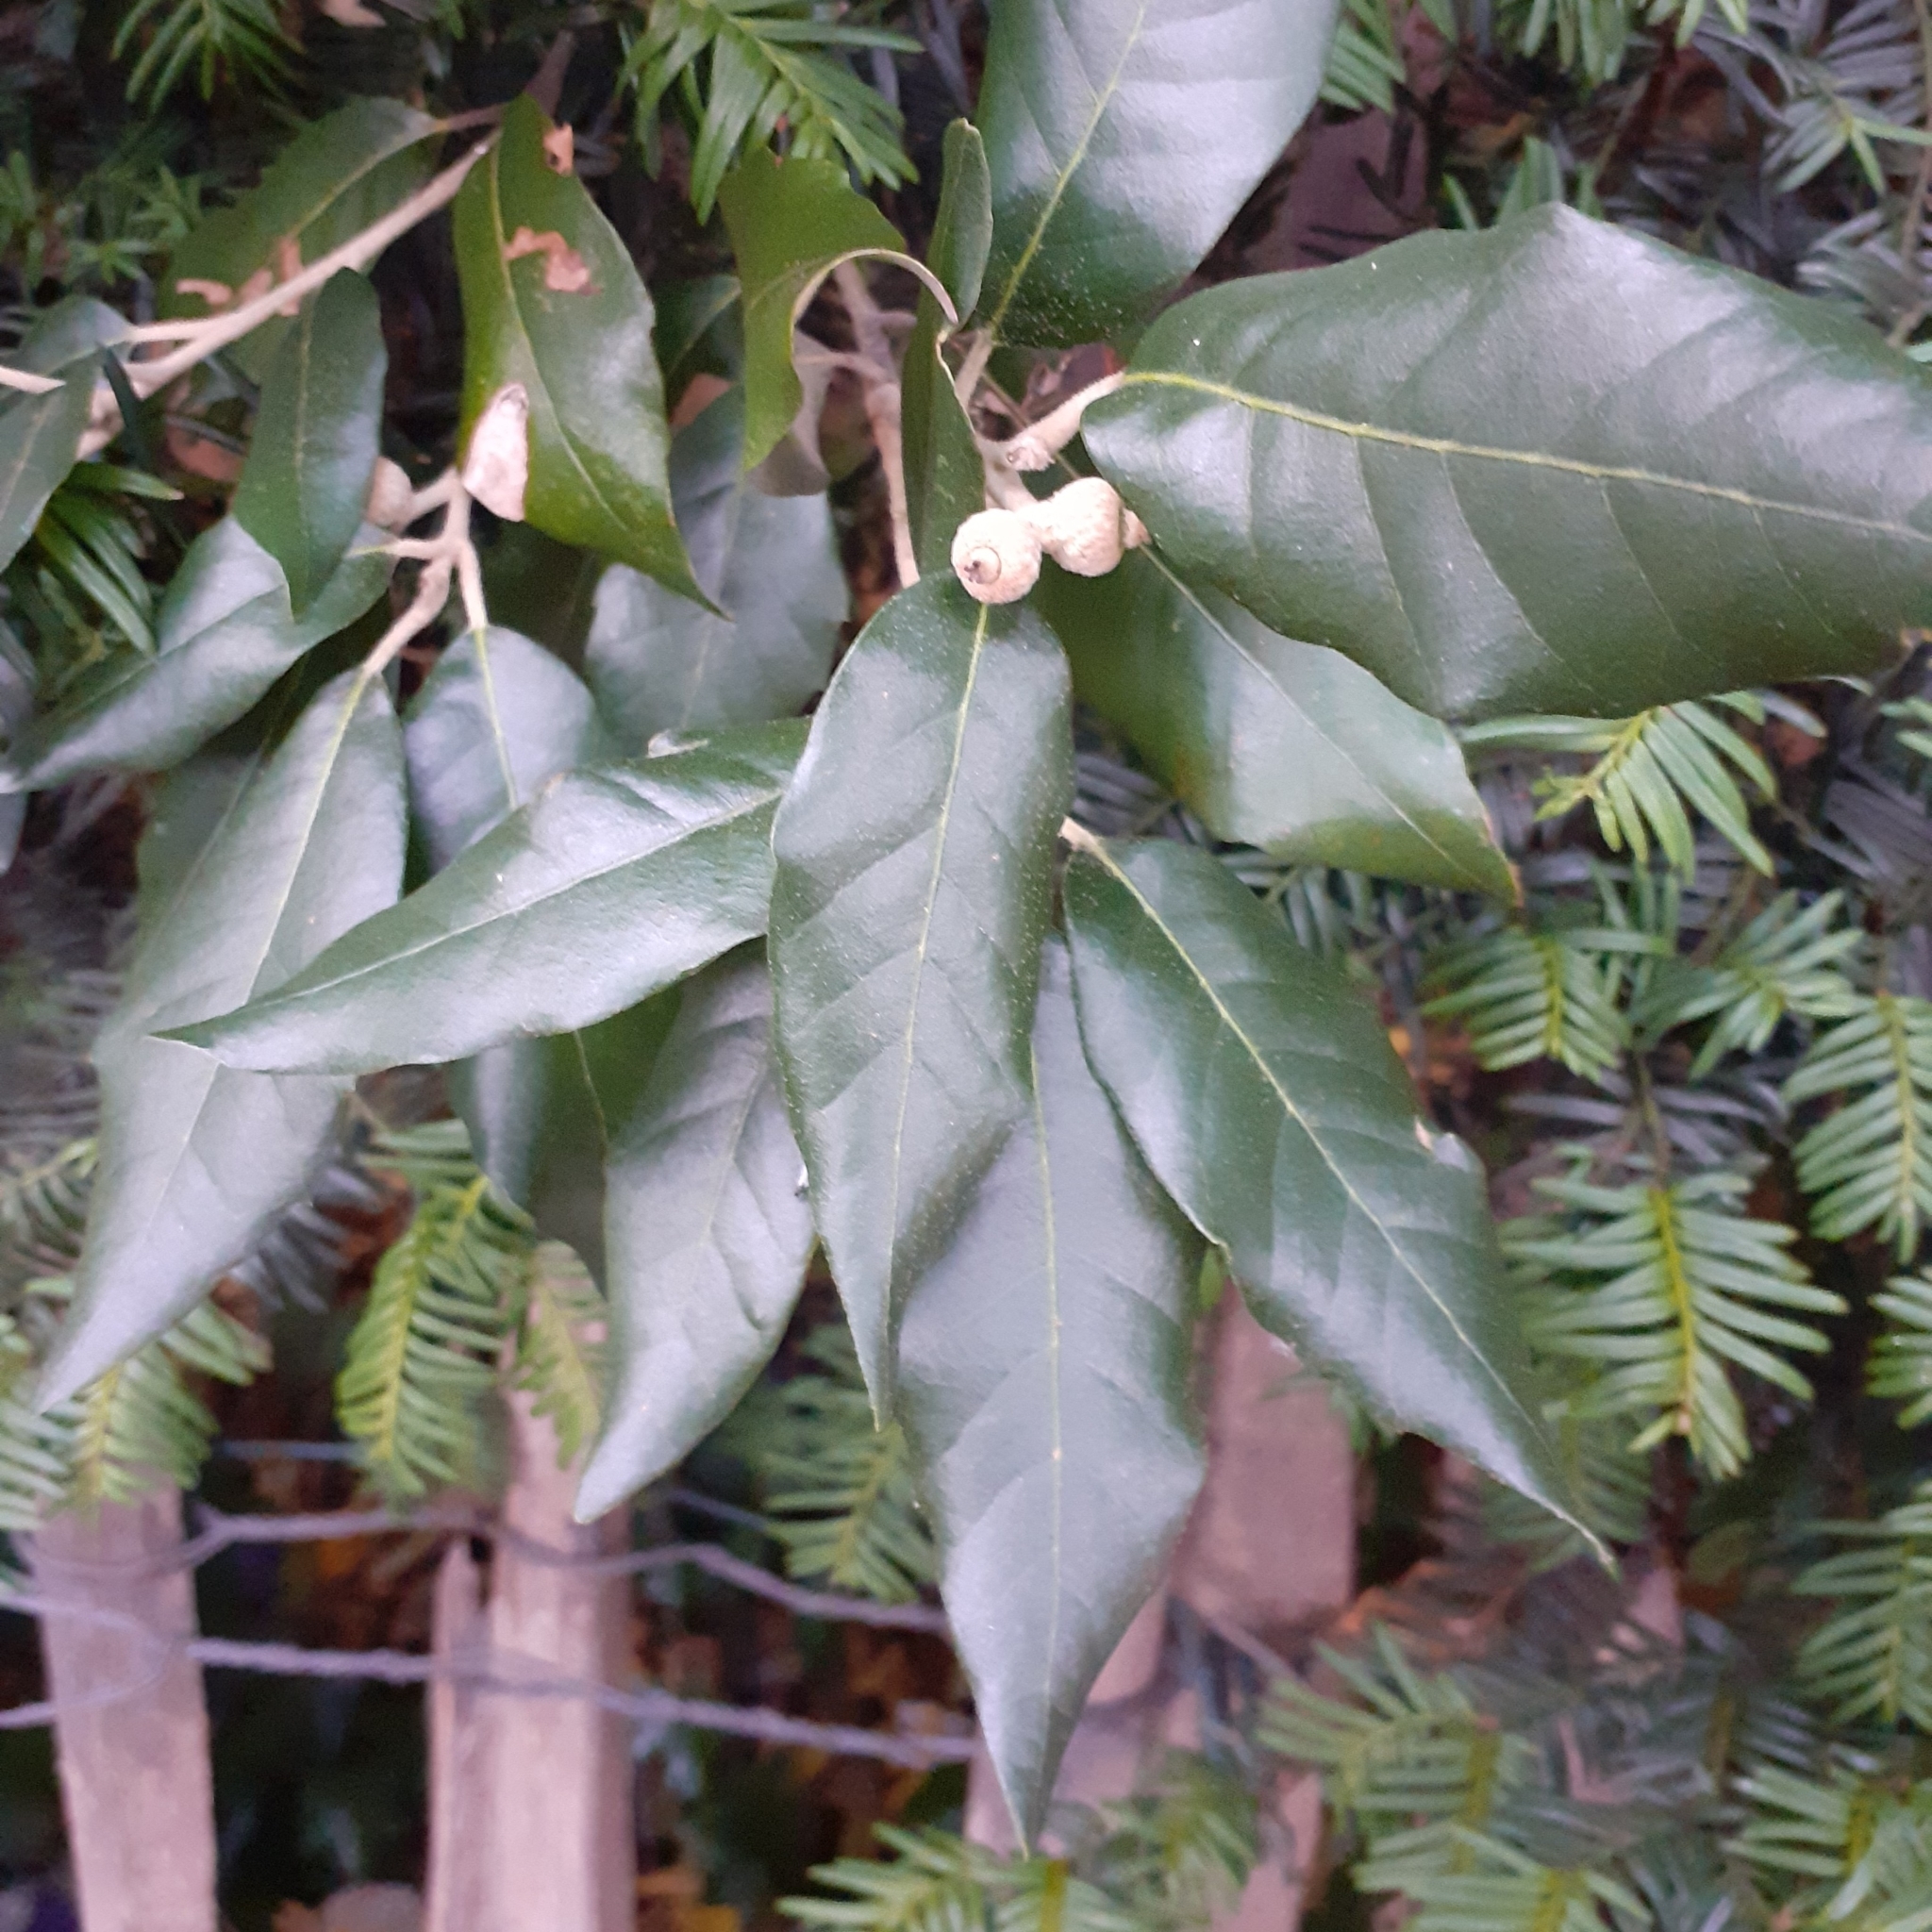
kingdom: Plantae
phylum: Tracheophyta
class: Magnoliopsida
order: Fagales
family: Fagaceae
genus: Quercus
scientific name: Quercus ilex
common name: Evergreen oak
